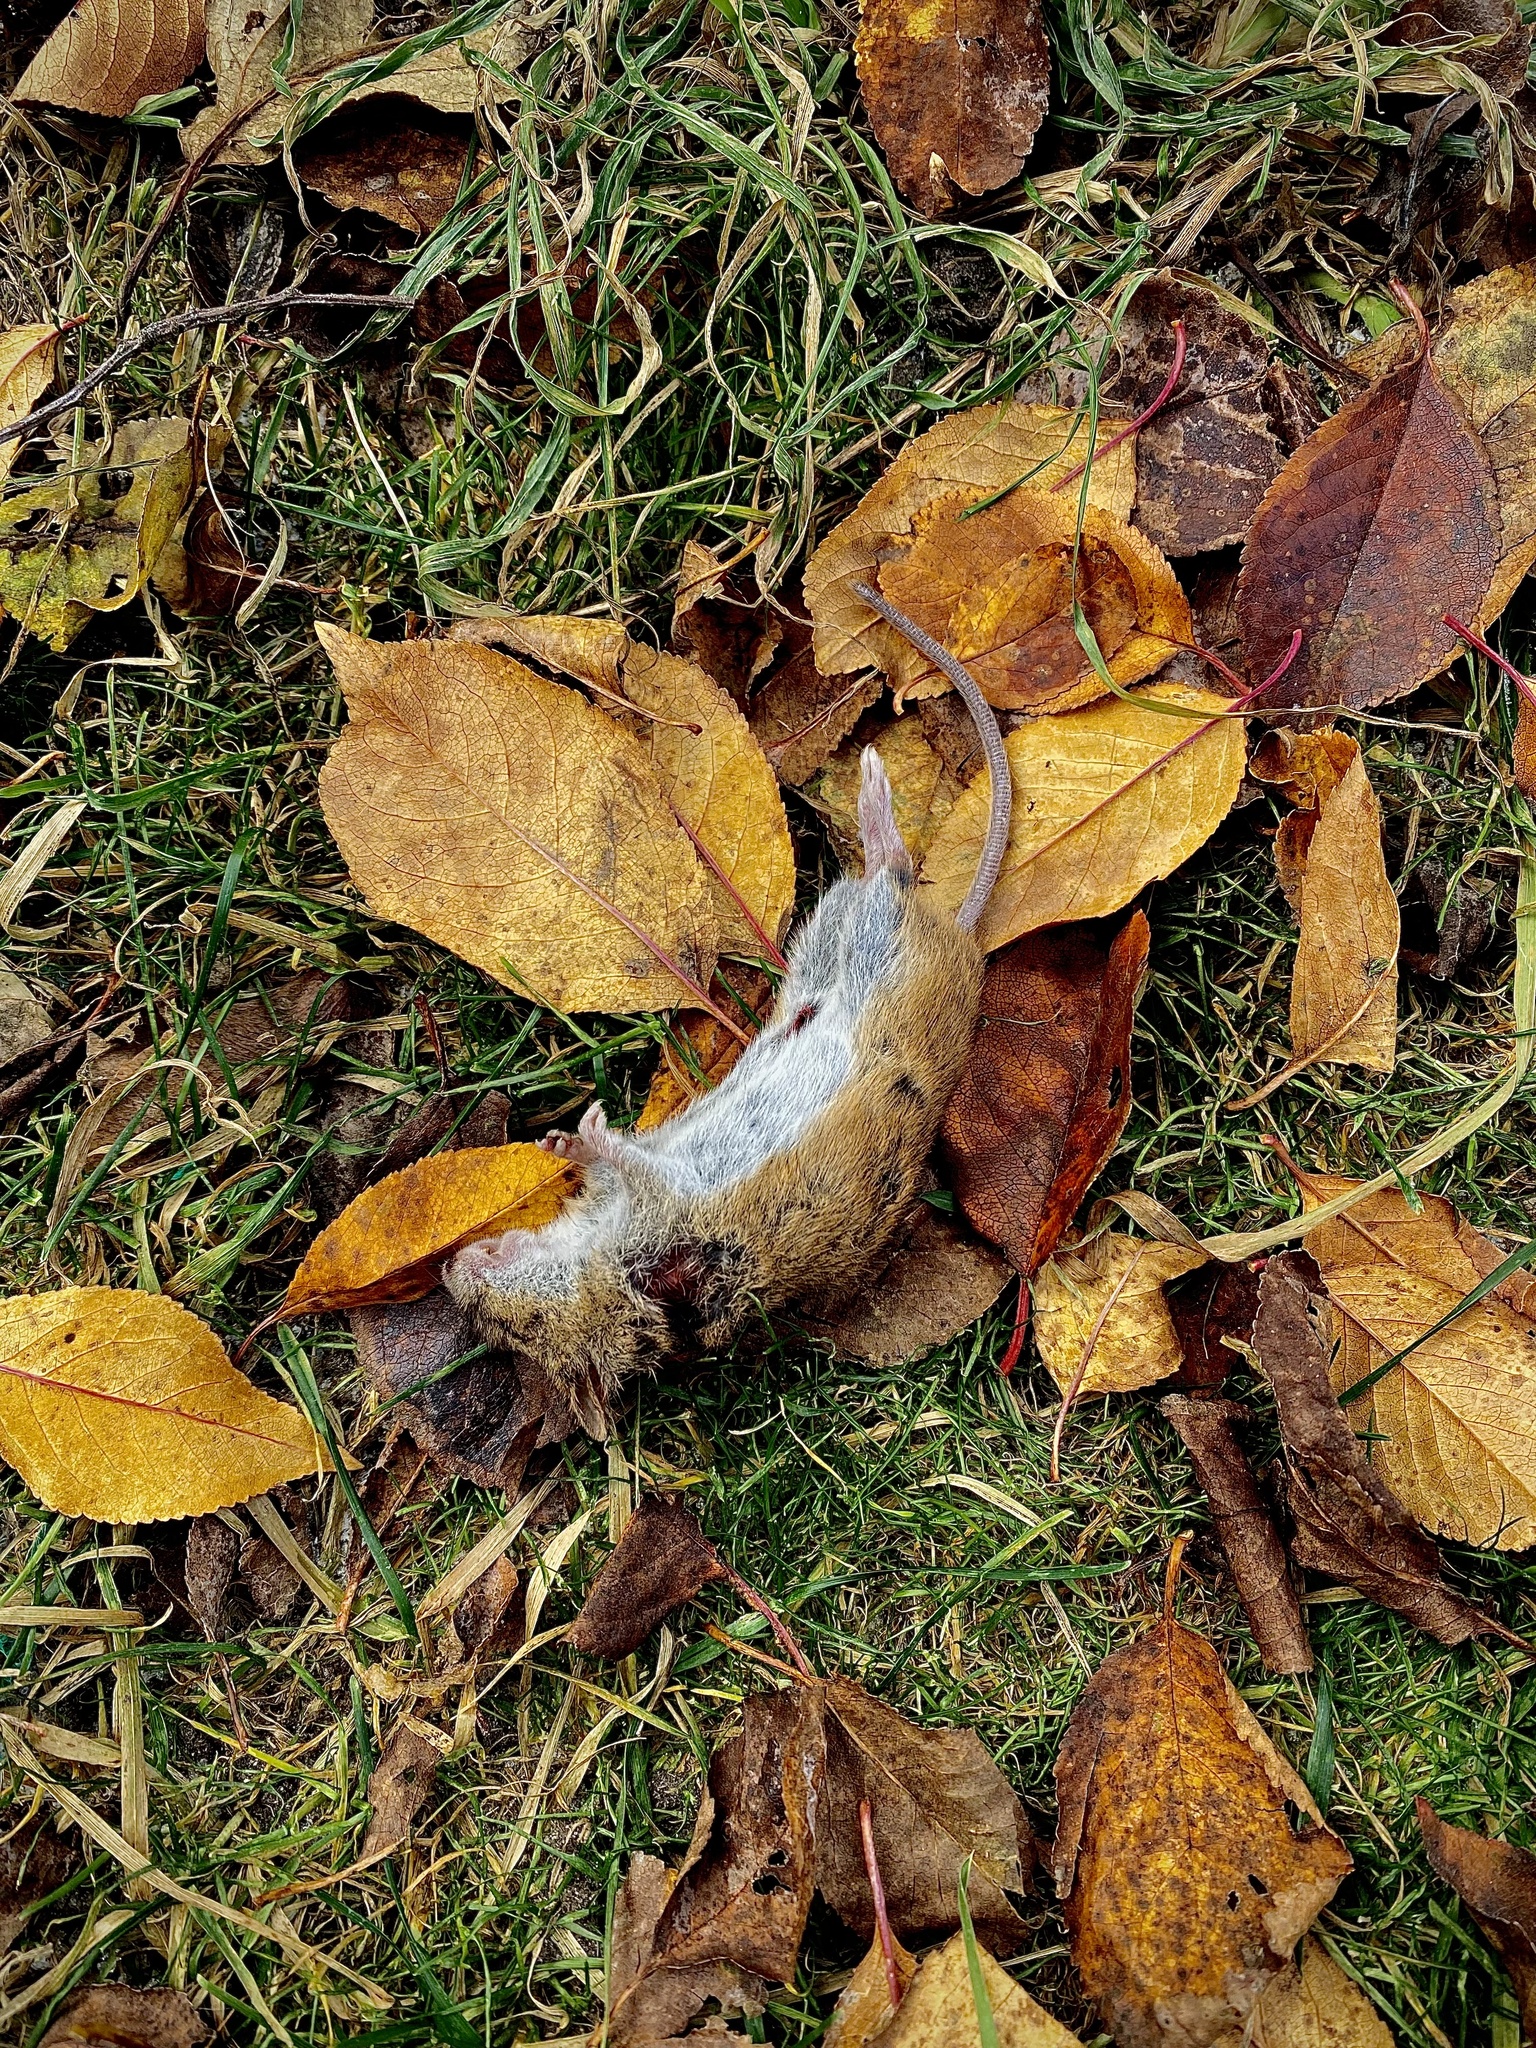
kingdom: Animalia
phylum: Chordata
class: Mammalia
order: Rodentia
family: Muridae
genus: Apodemus
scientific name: Apodemus agrarius
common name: Striped field mouse
